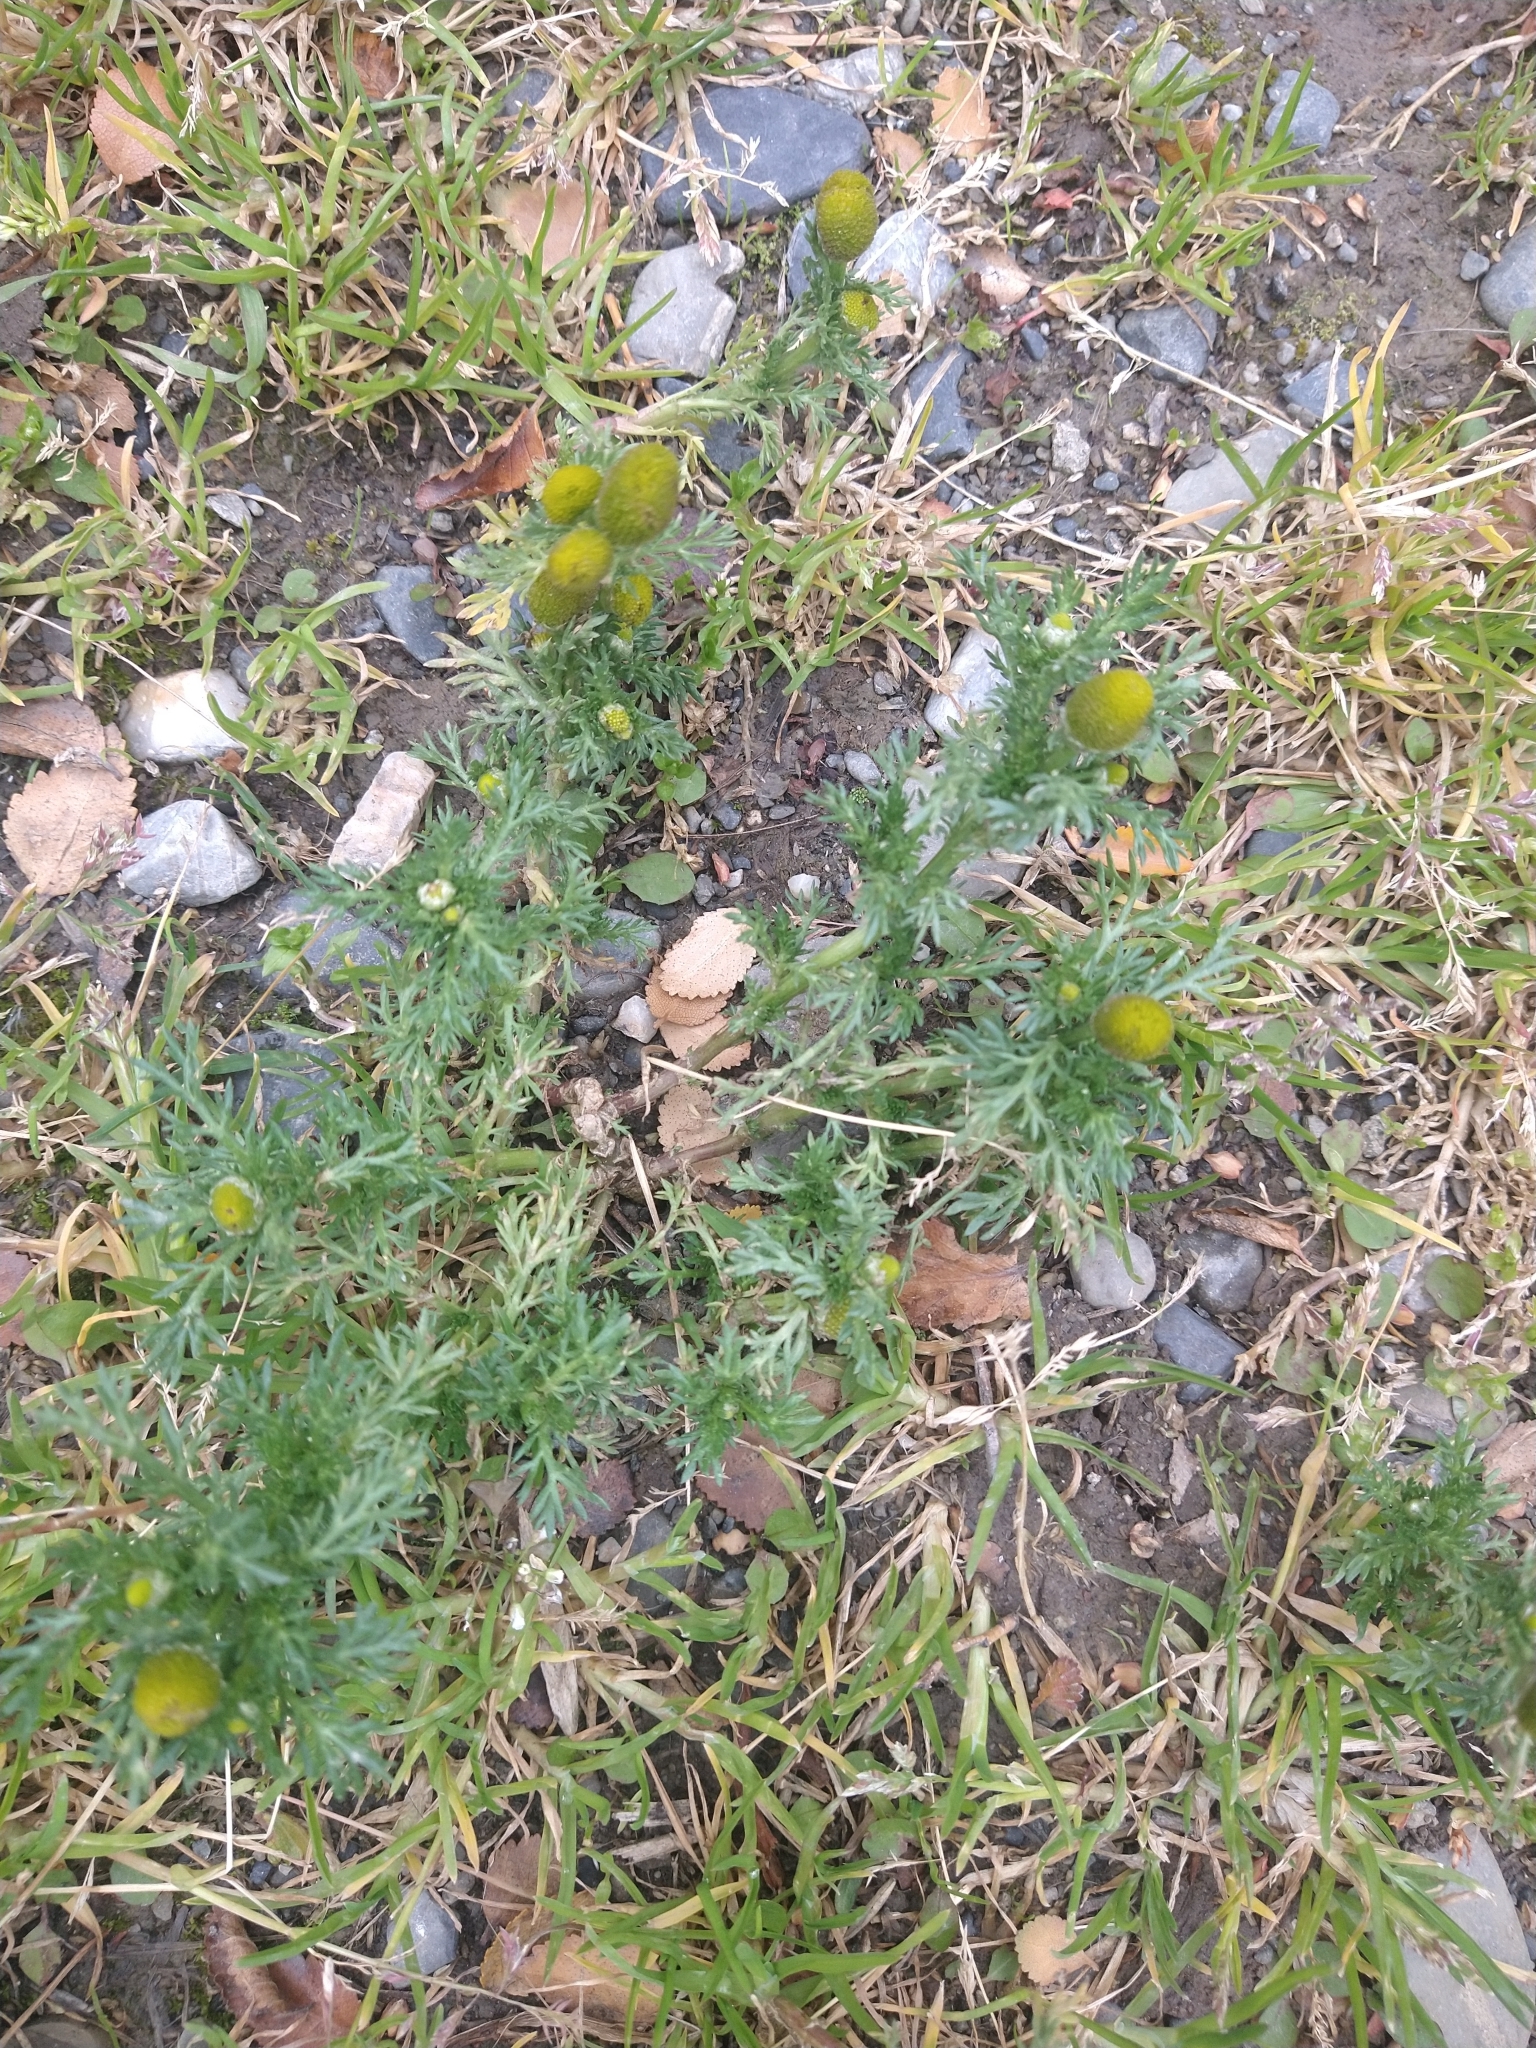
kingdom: Plantae
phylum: Tracheophyta
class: Magnoliopsida
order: Asterales
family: Asteraceae
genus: Matricaria
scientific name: Matricaria discoidea
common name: Disc mayweed
